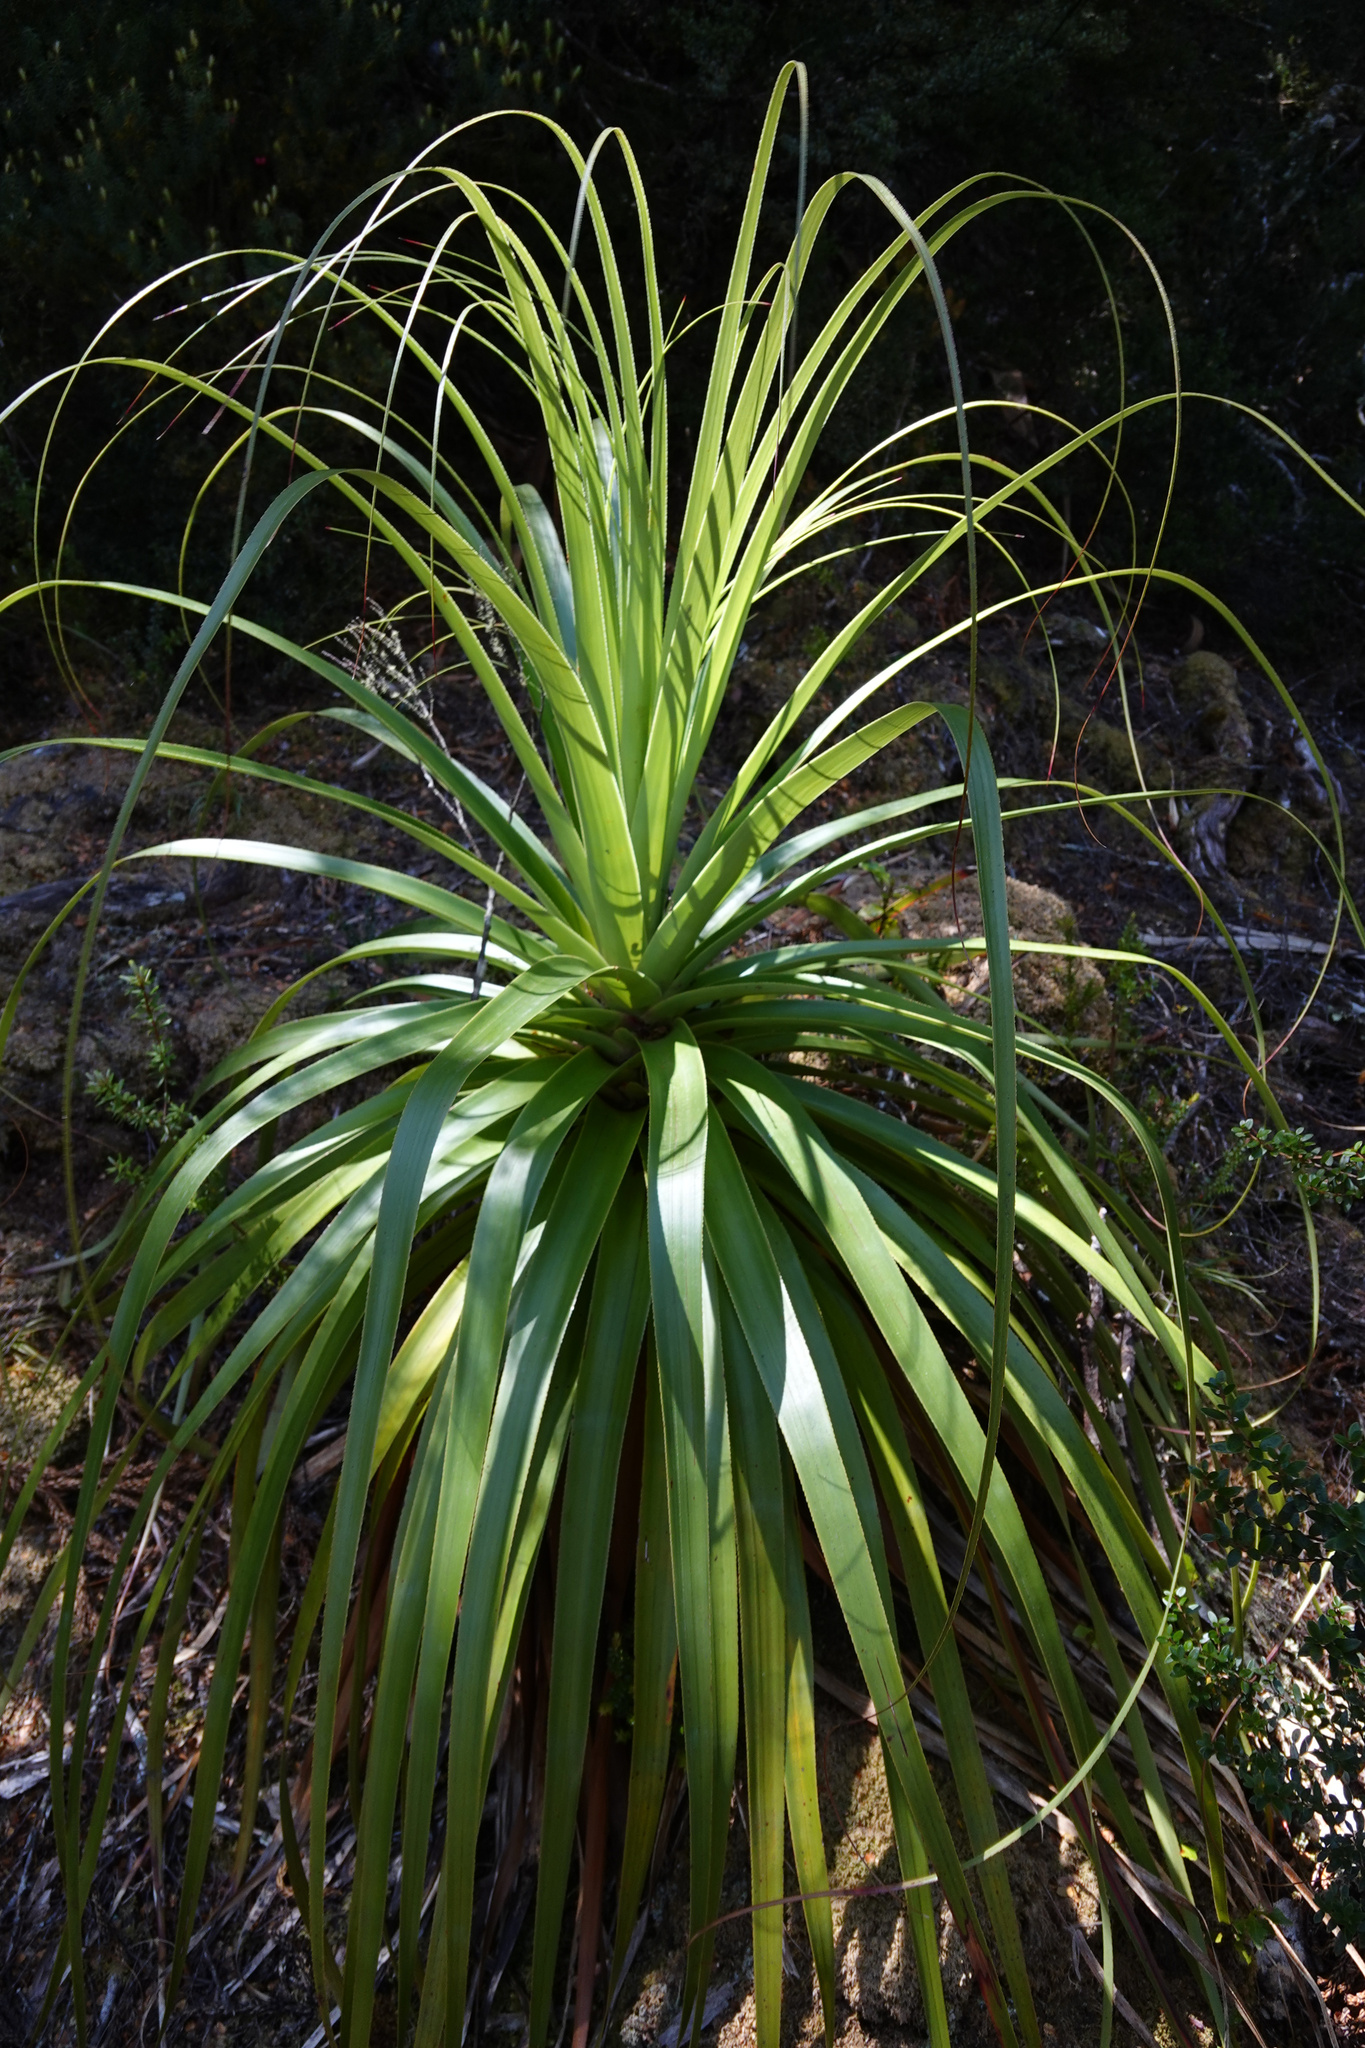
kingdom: Plantae
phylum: Tracheophyta
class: Magnoliopsida
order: Ericales
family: Ericaceae
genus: Dracophyllum
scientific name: Dracophyllum pandanifolium
